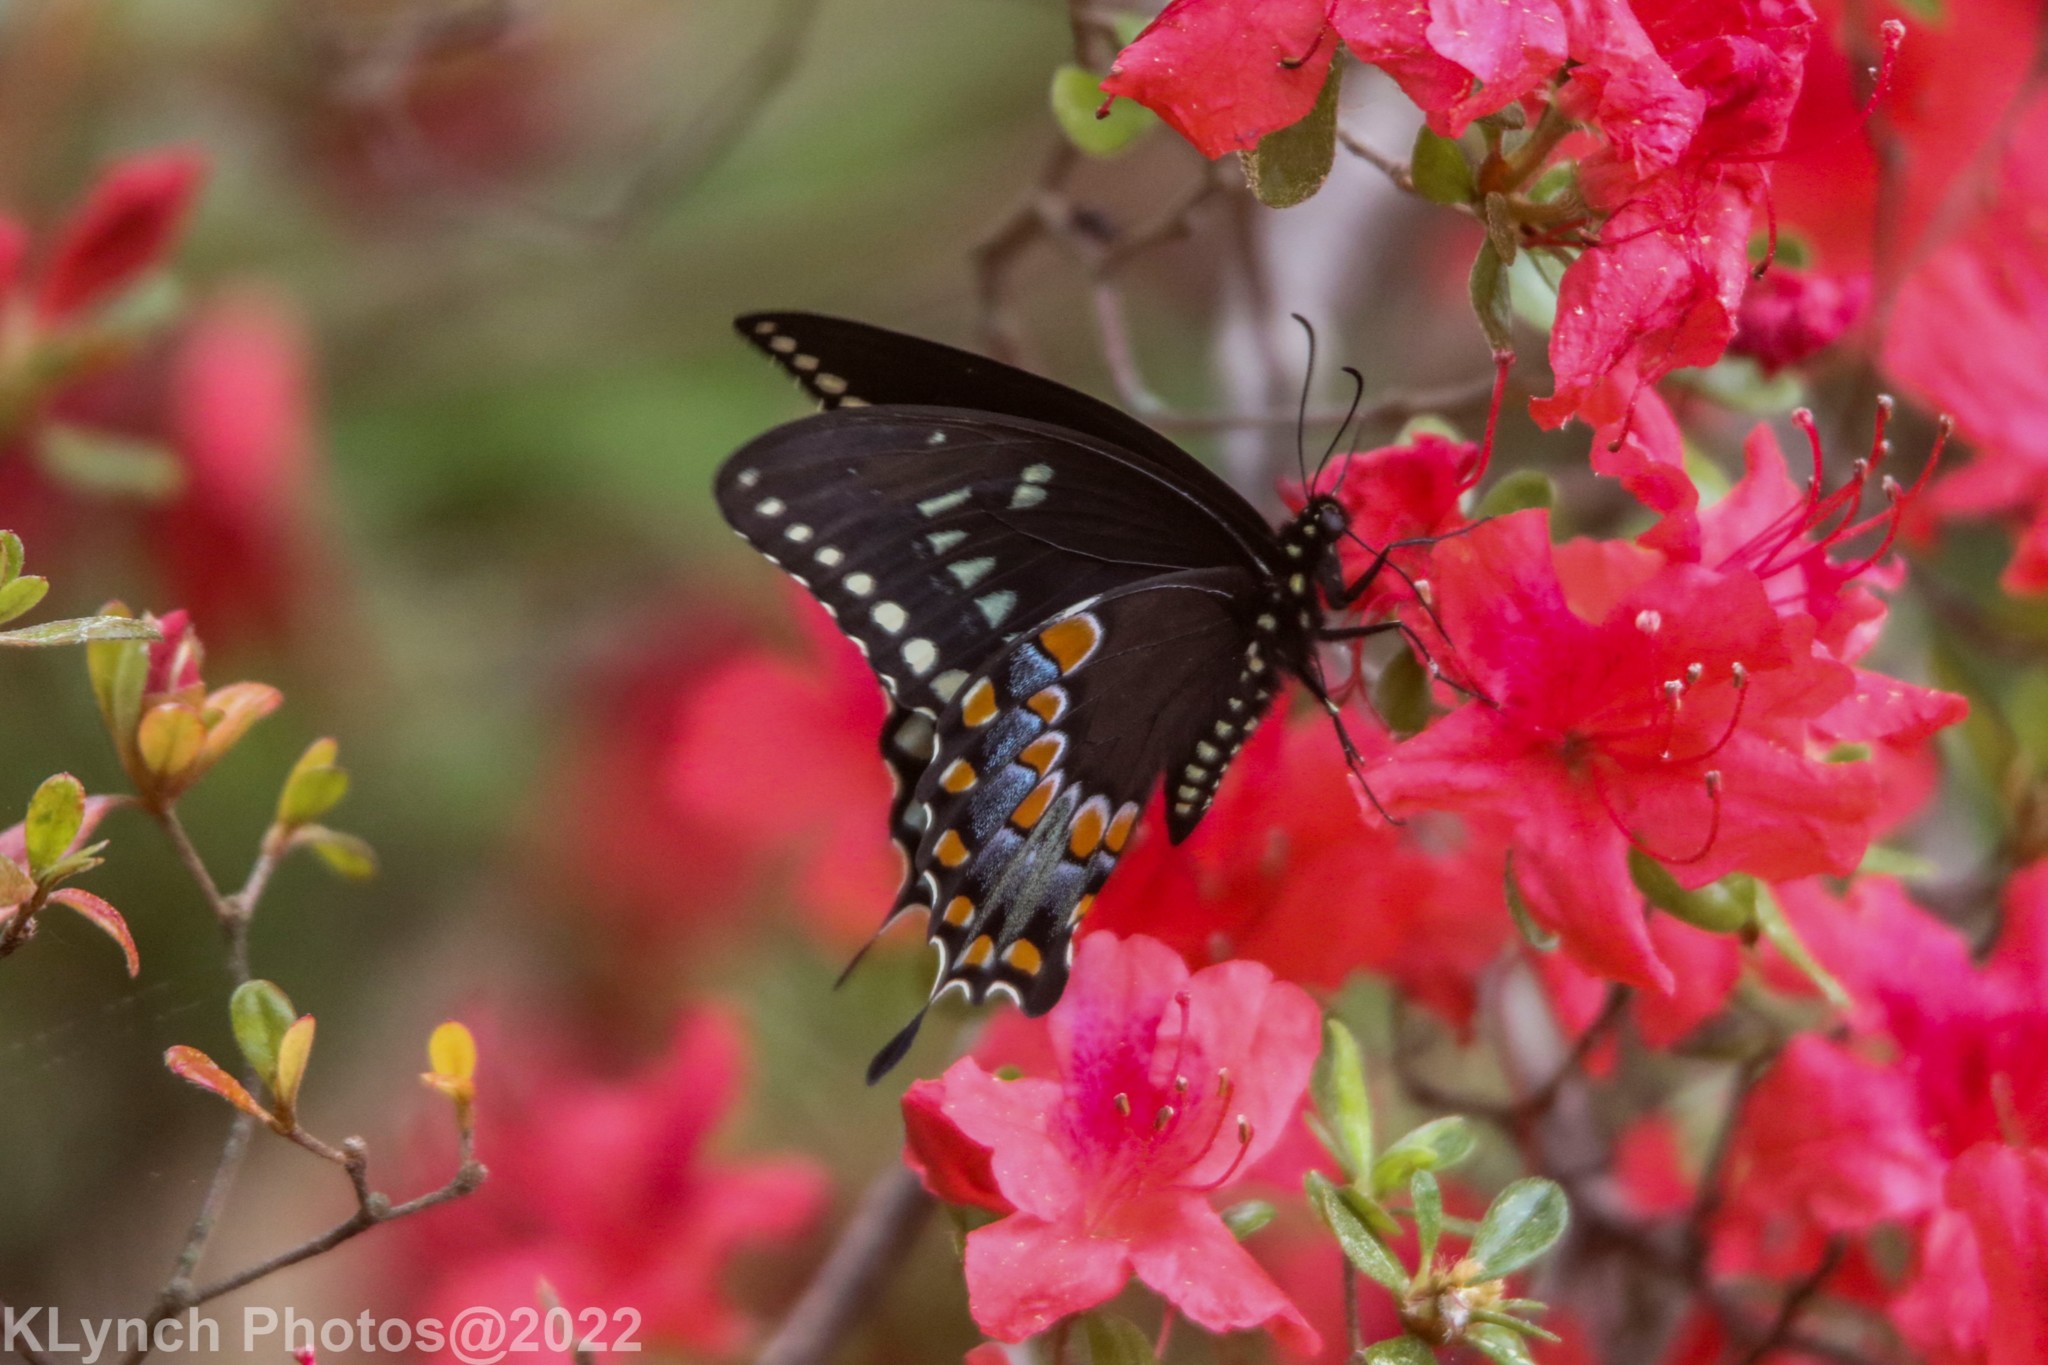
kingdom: Animalia
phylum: Arthropoda
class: Insecta
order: Lepidoptera
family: Papilionidae
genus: Papilio
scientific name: Papilio troilus
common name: Spicebush swallowtail
